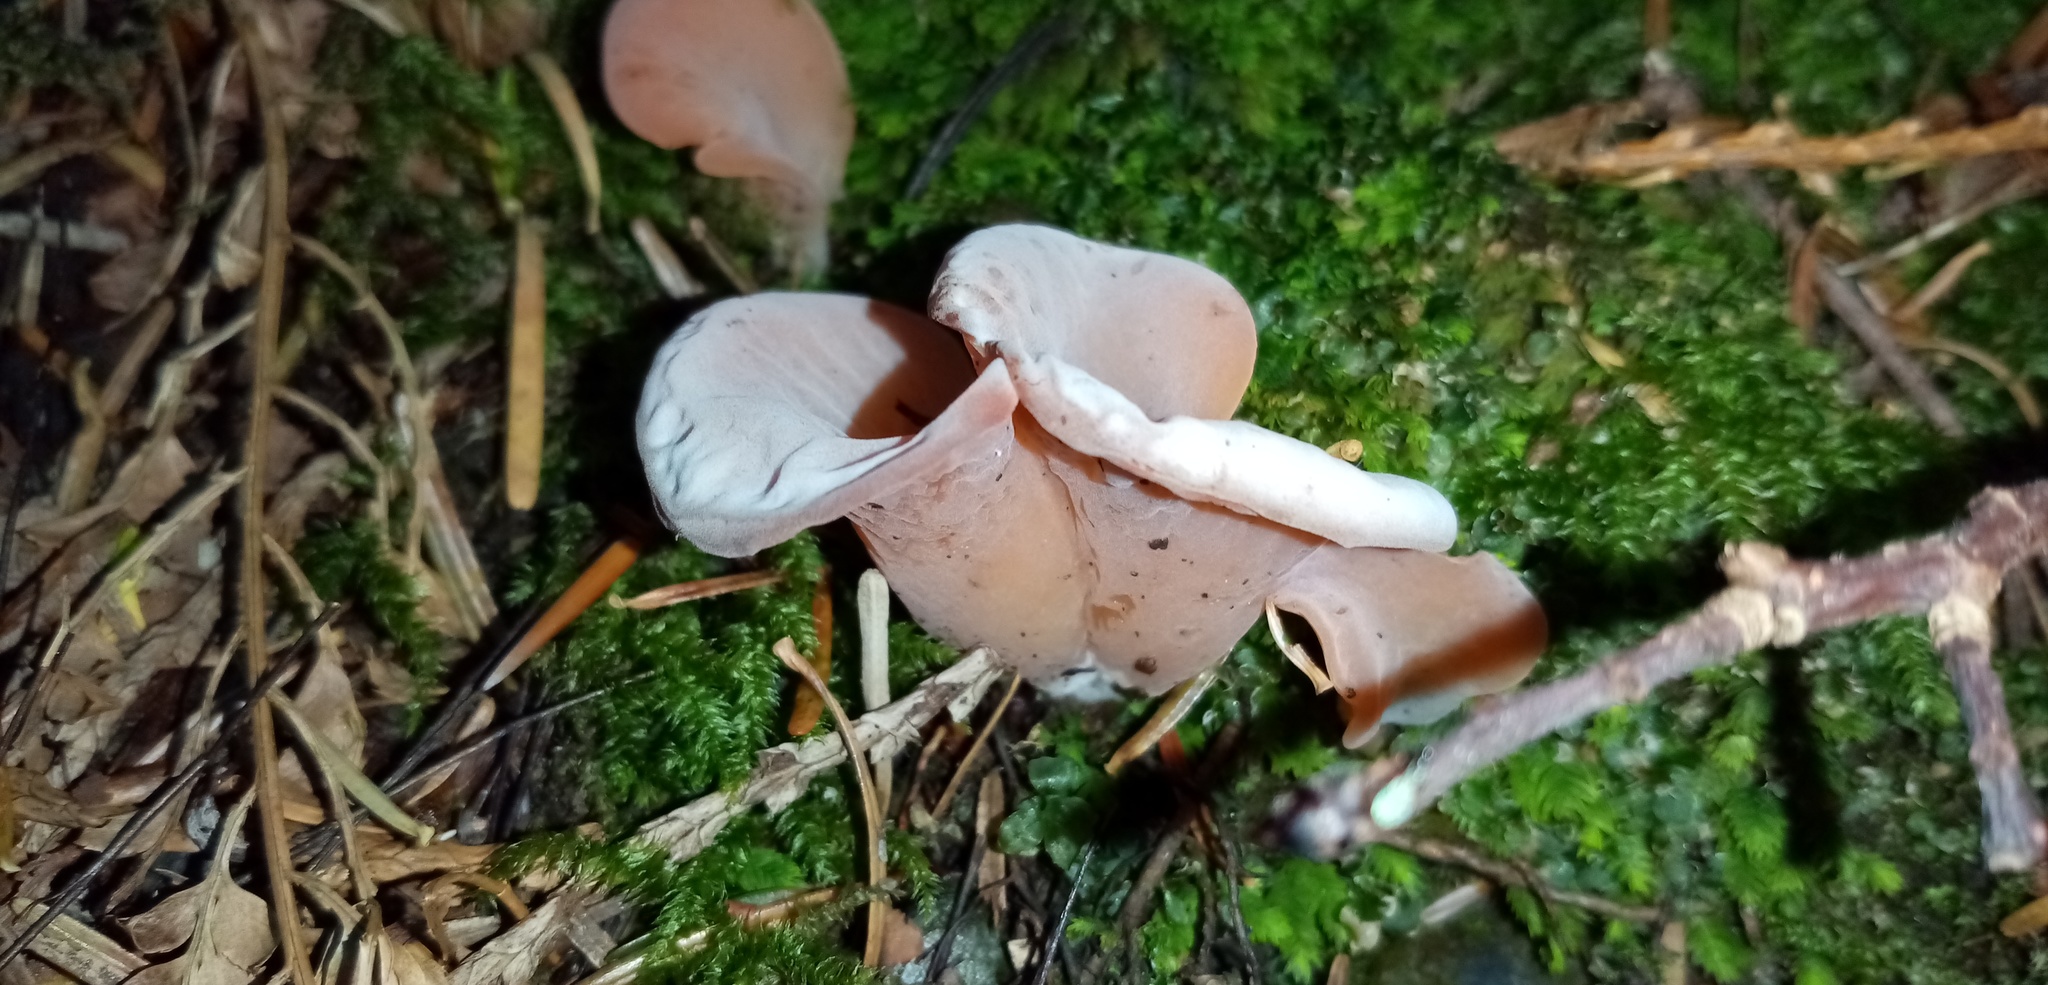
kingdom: Fungi
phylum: Basidiomycota
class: Agaricomycetes
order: Auriculariales
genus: Guepinia
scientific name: Guepinia helvelloides
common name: Salmon salad
